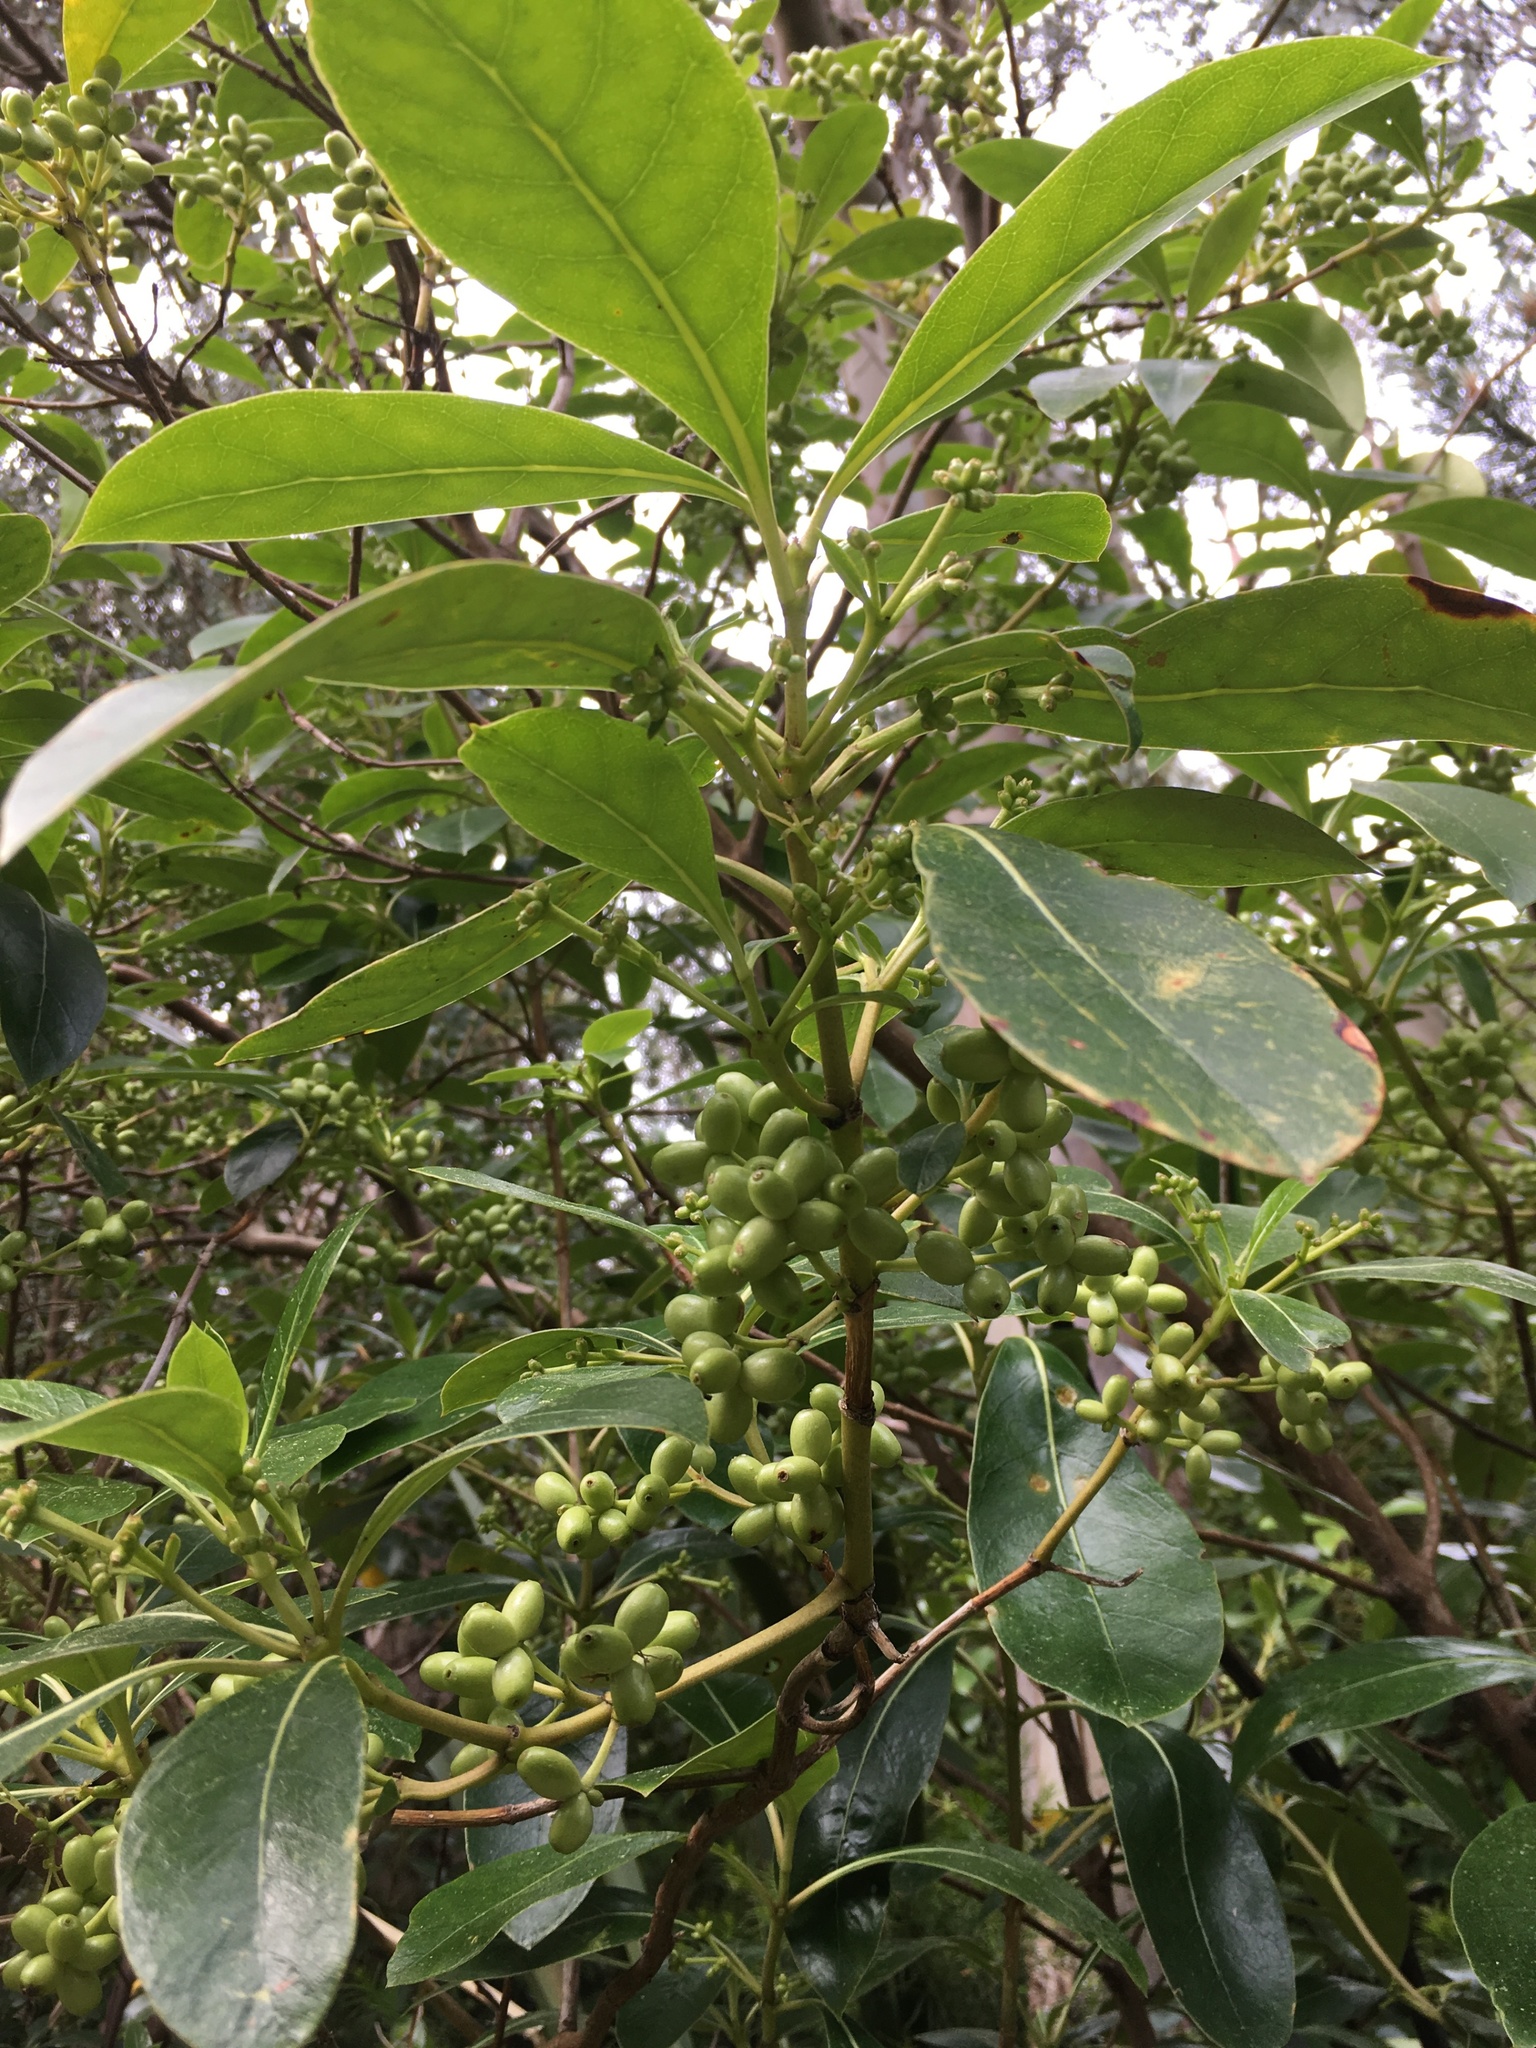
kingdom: Plantae
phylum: Tracheophyta
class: Magnoliopsida
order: Gentianales
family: Rubiaceae
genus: Coprosma
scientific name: Coprosma lucida
